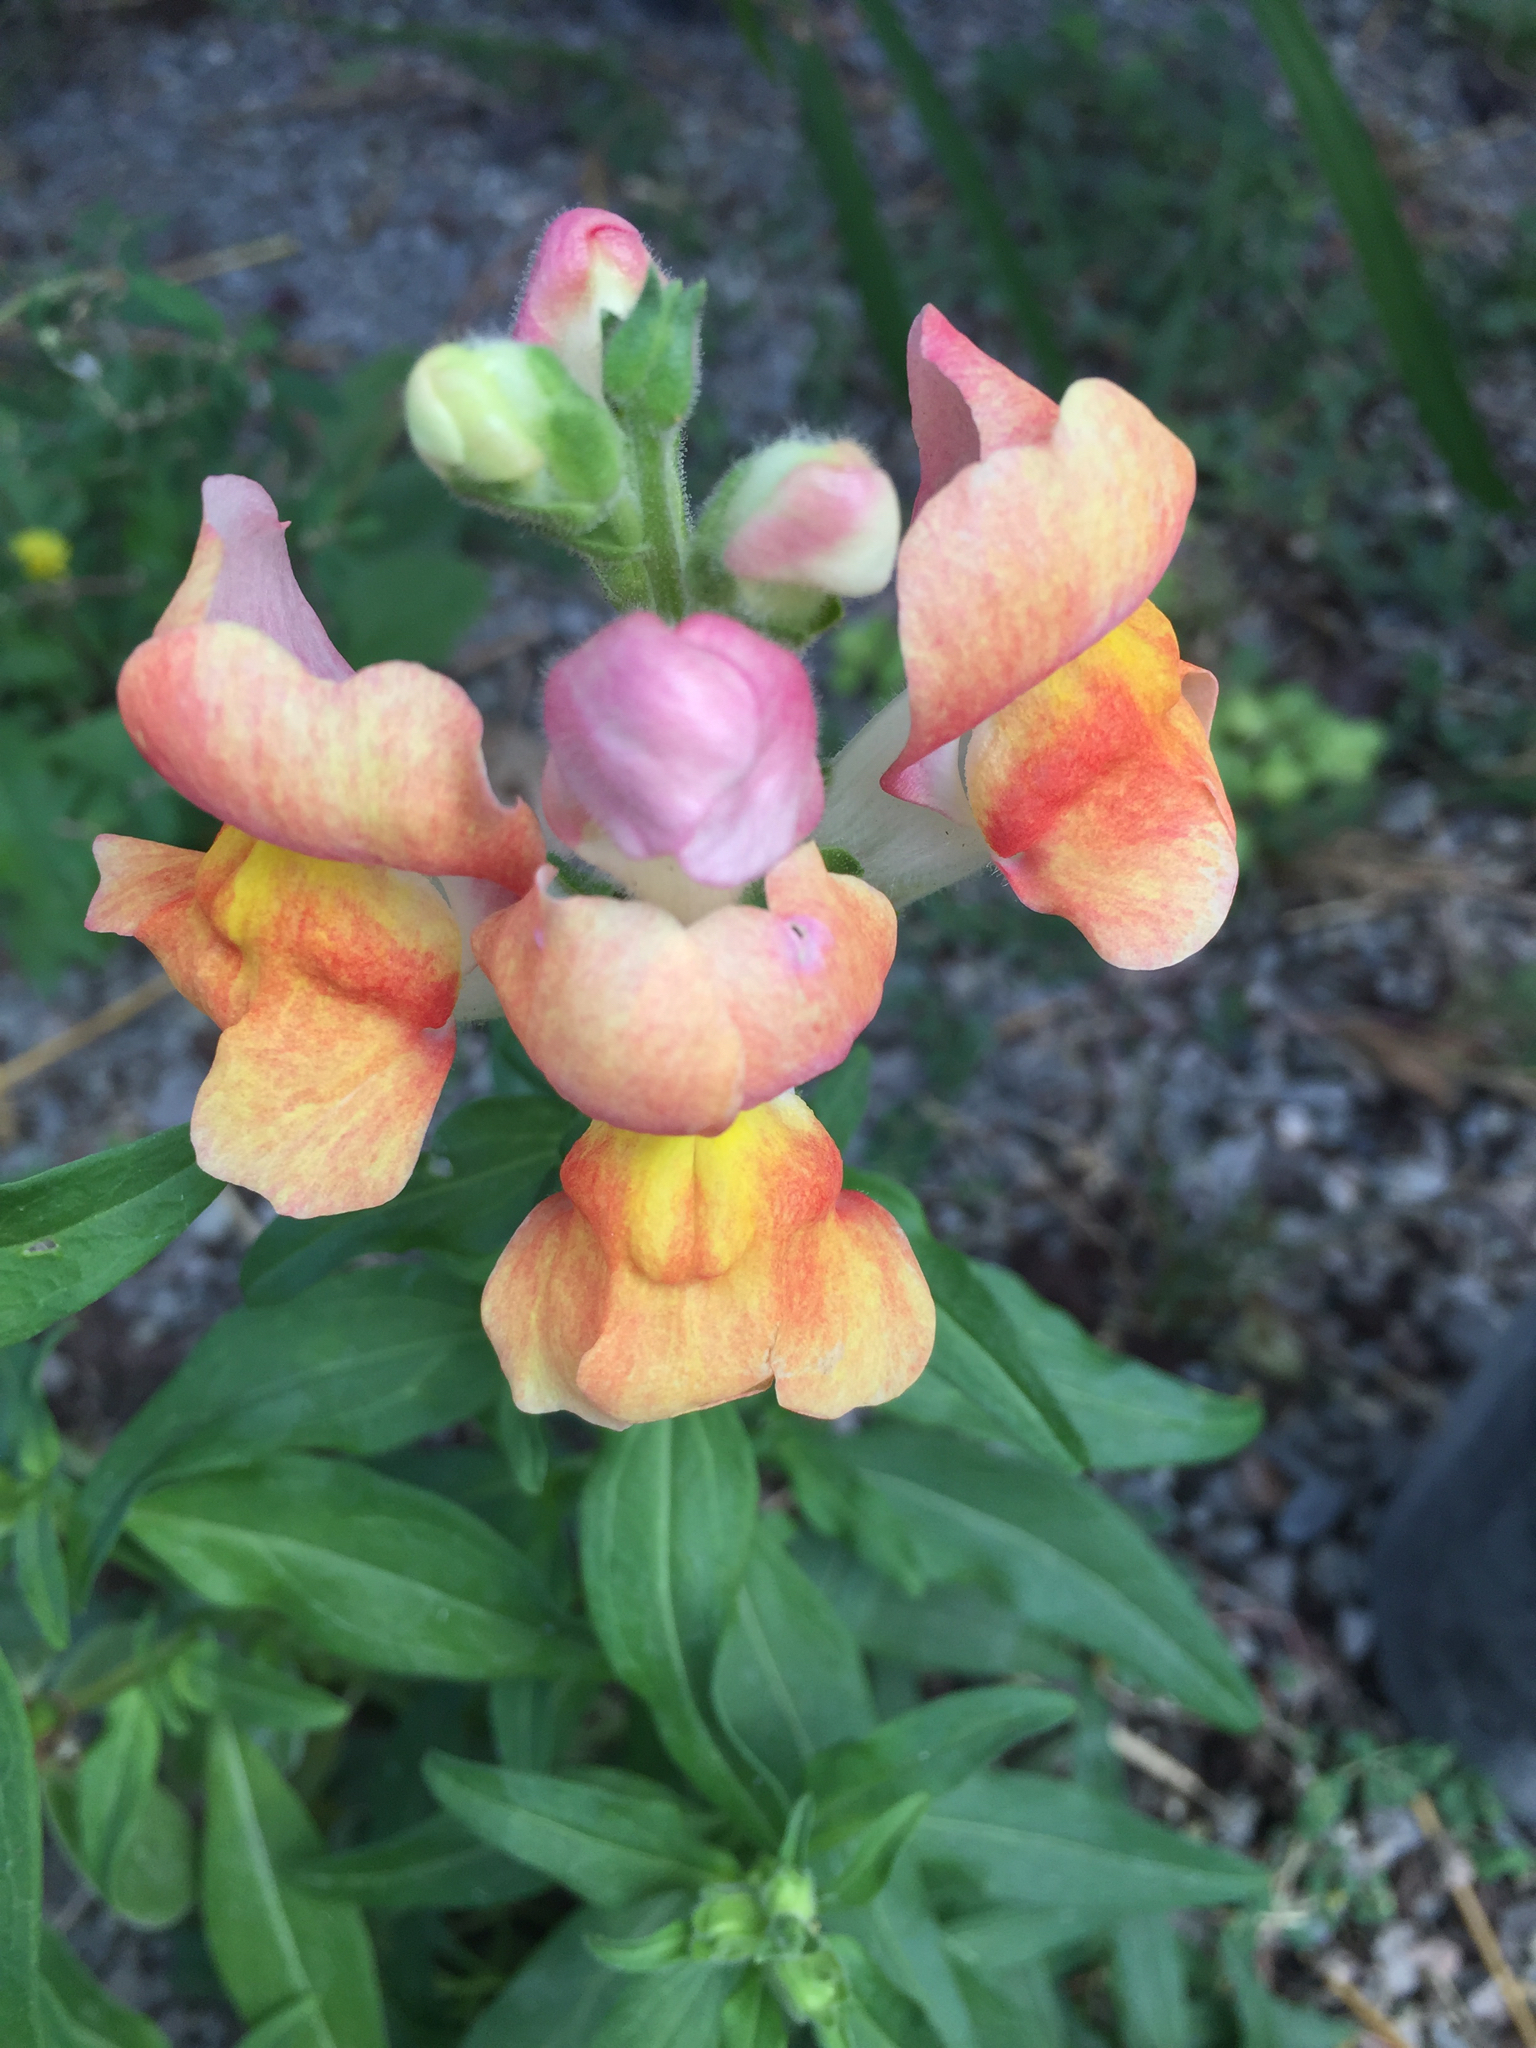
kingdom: Plantae
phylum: Tracheophyta
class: Magnoliopsida
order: Lamiales
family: Plantaginaceae
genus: Antirrhinum
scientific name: Antirrhinum majus
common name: Snapdragon
